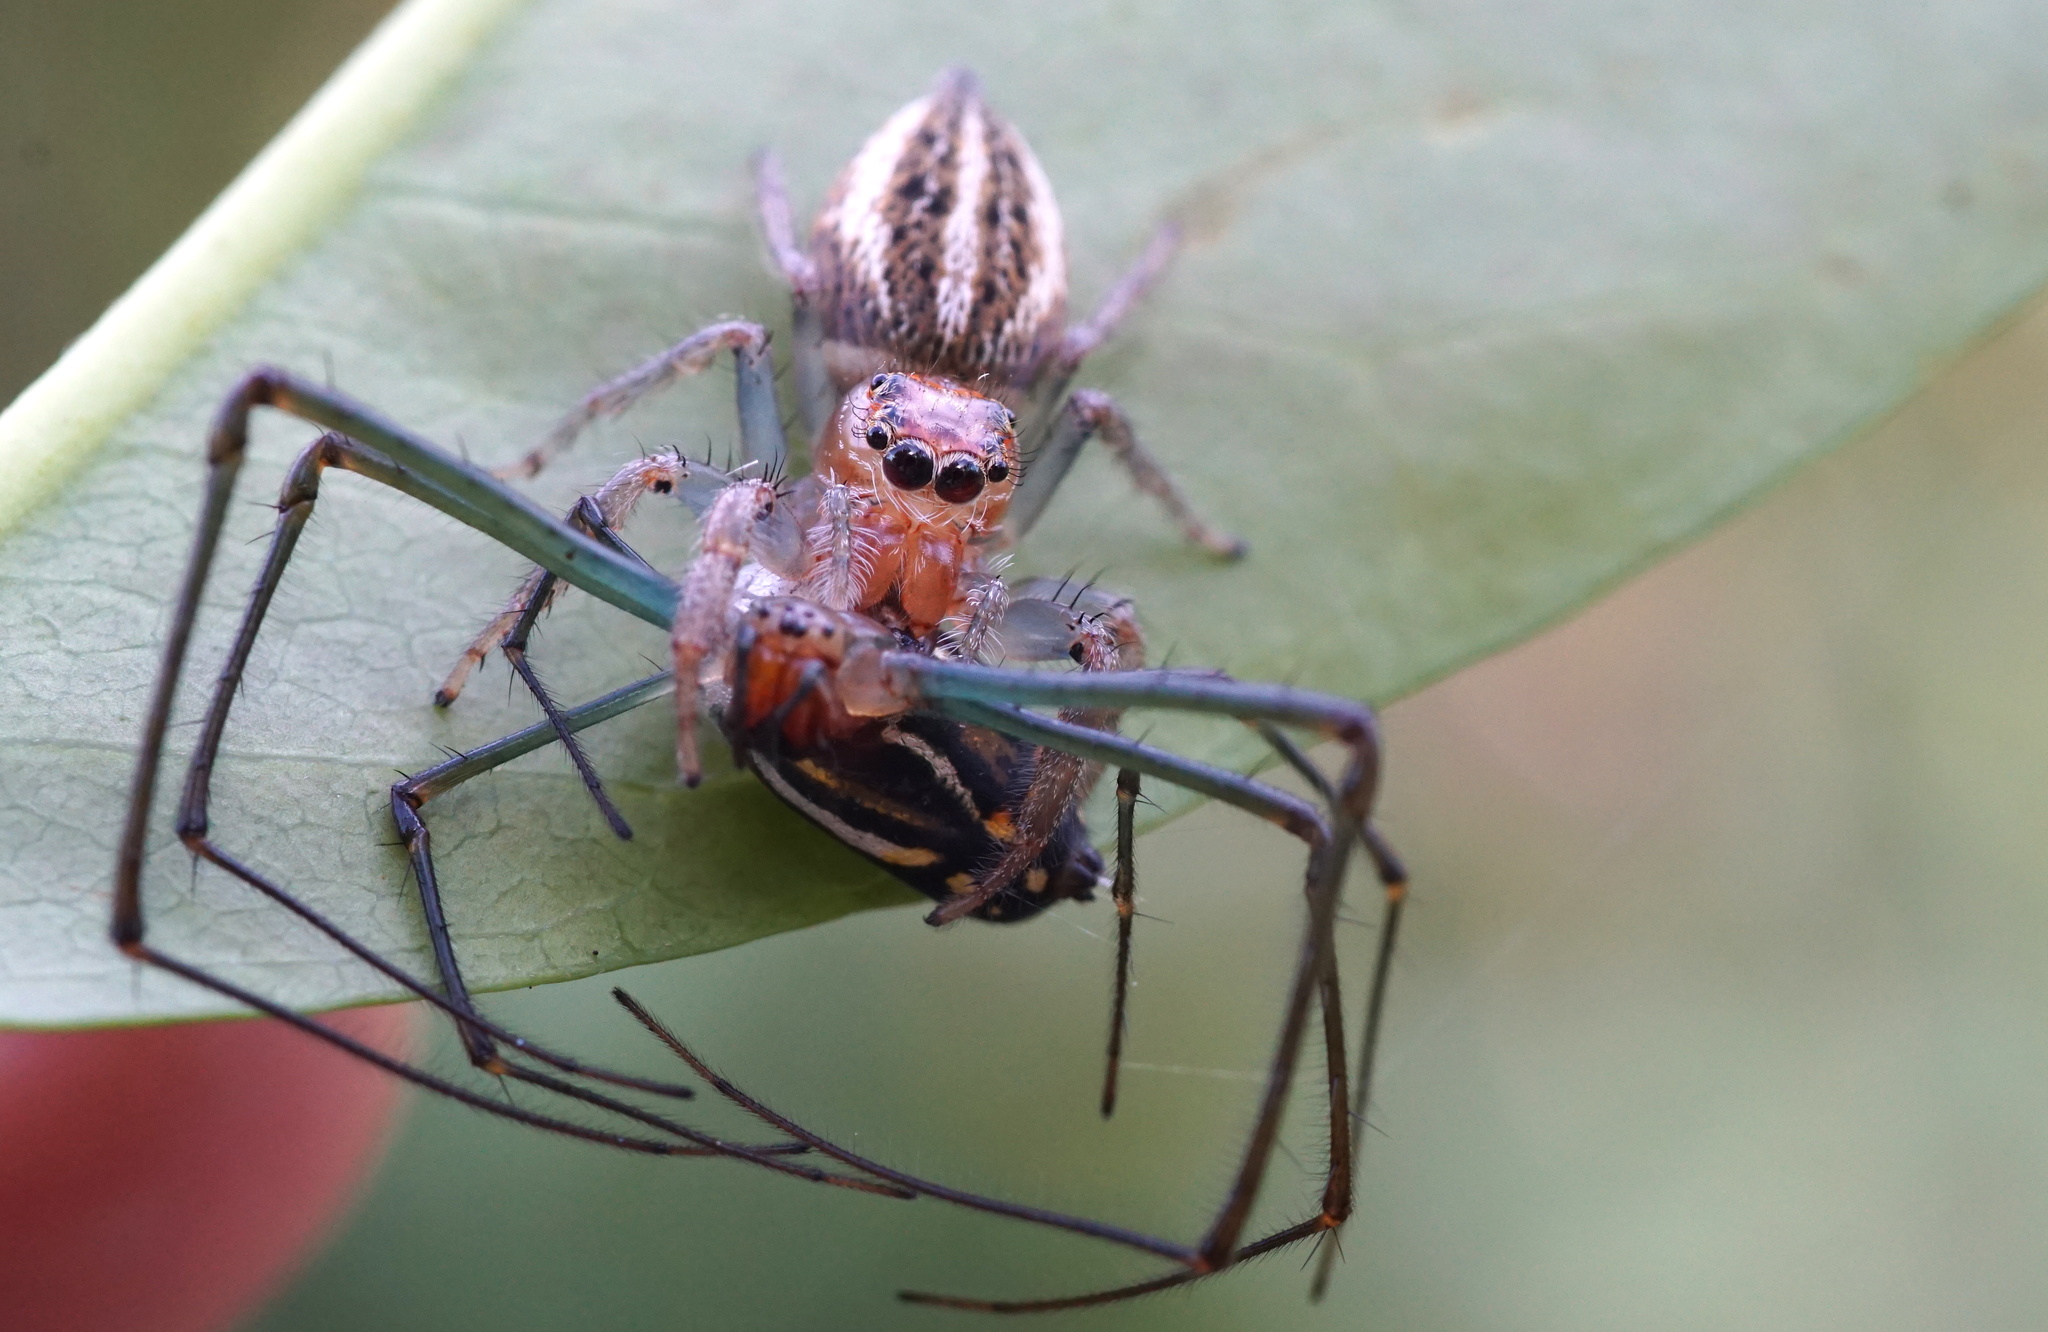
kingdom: Animalia
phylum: Arthropoda
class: Arachnida
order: Araneae
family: Salticidae
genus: Colonus
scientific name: Colonus sylvanus
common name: Jumping spiders
